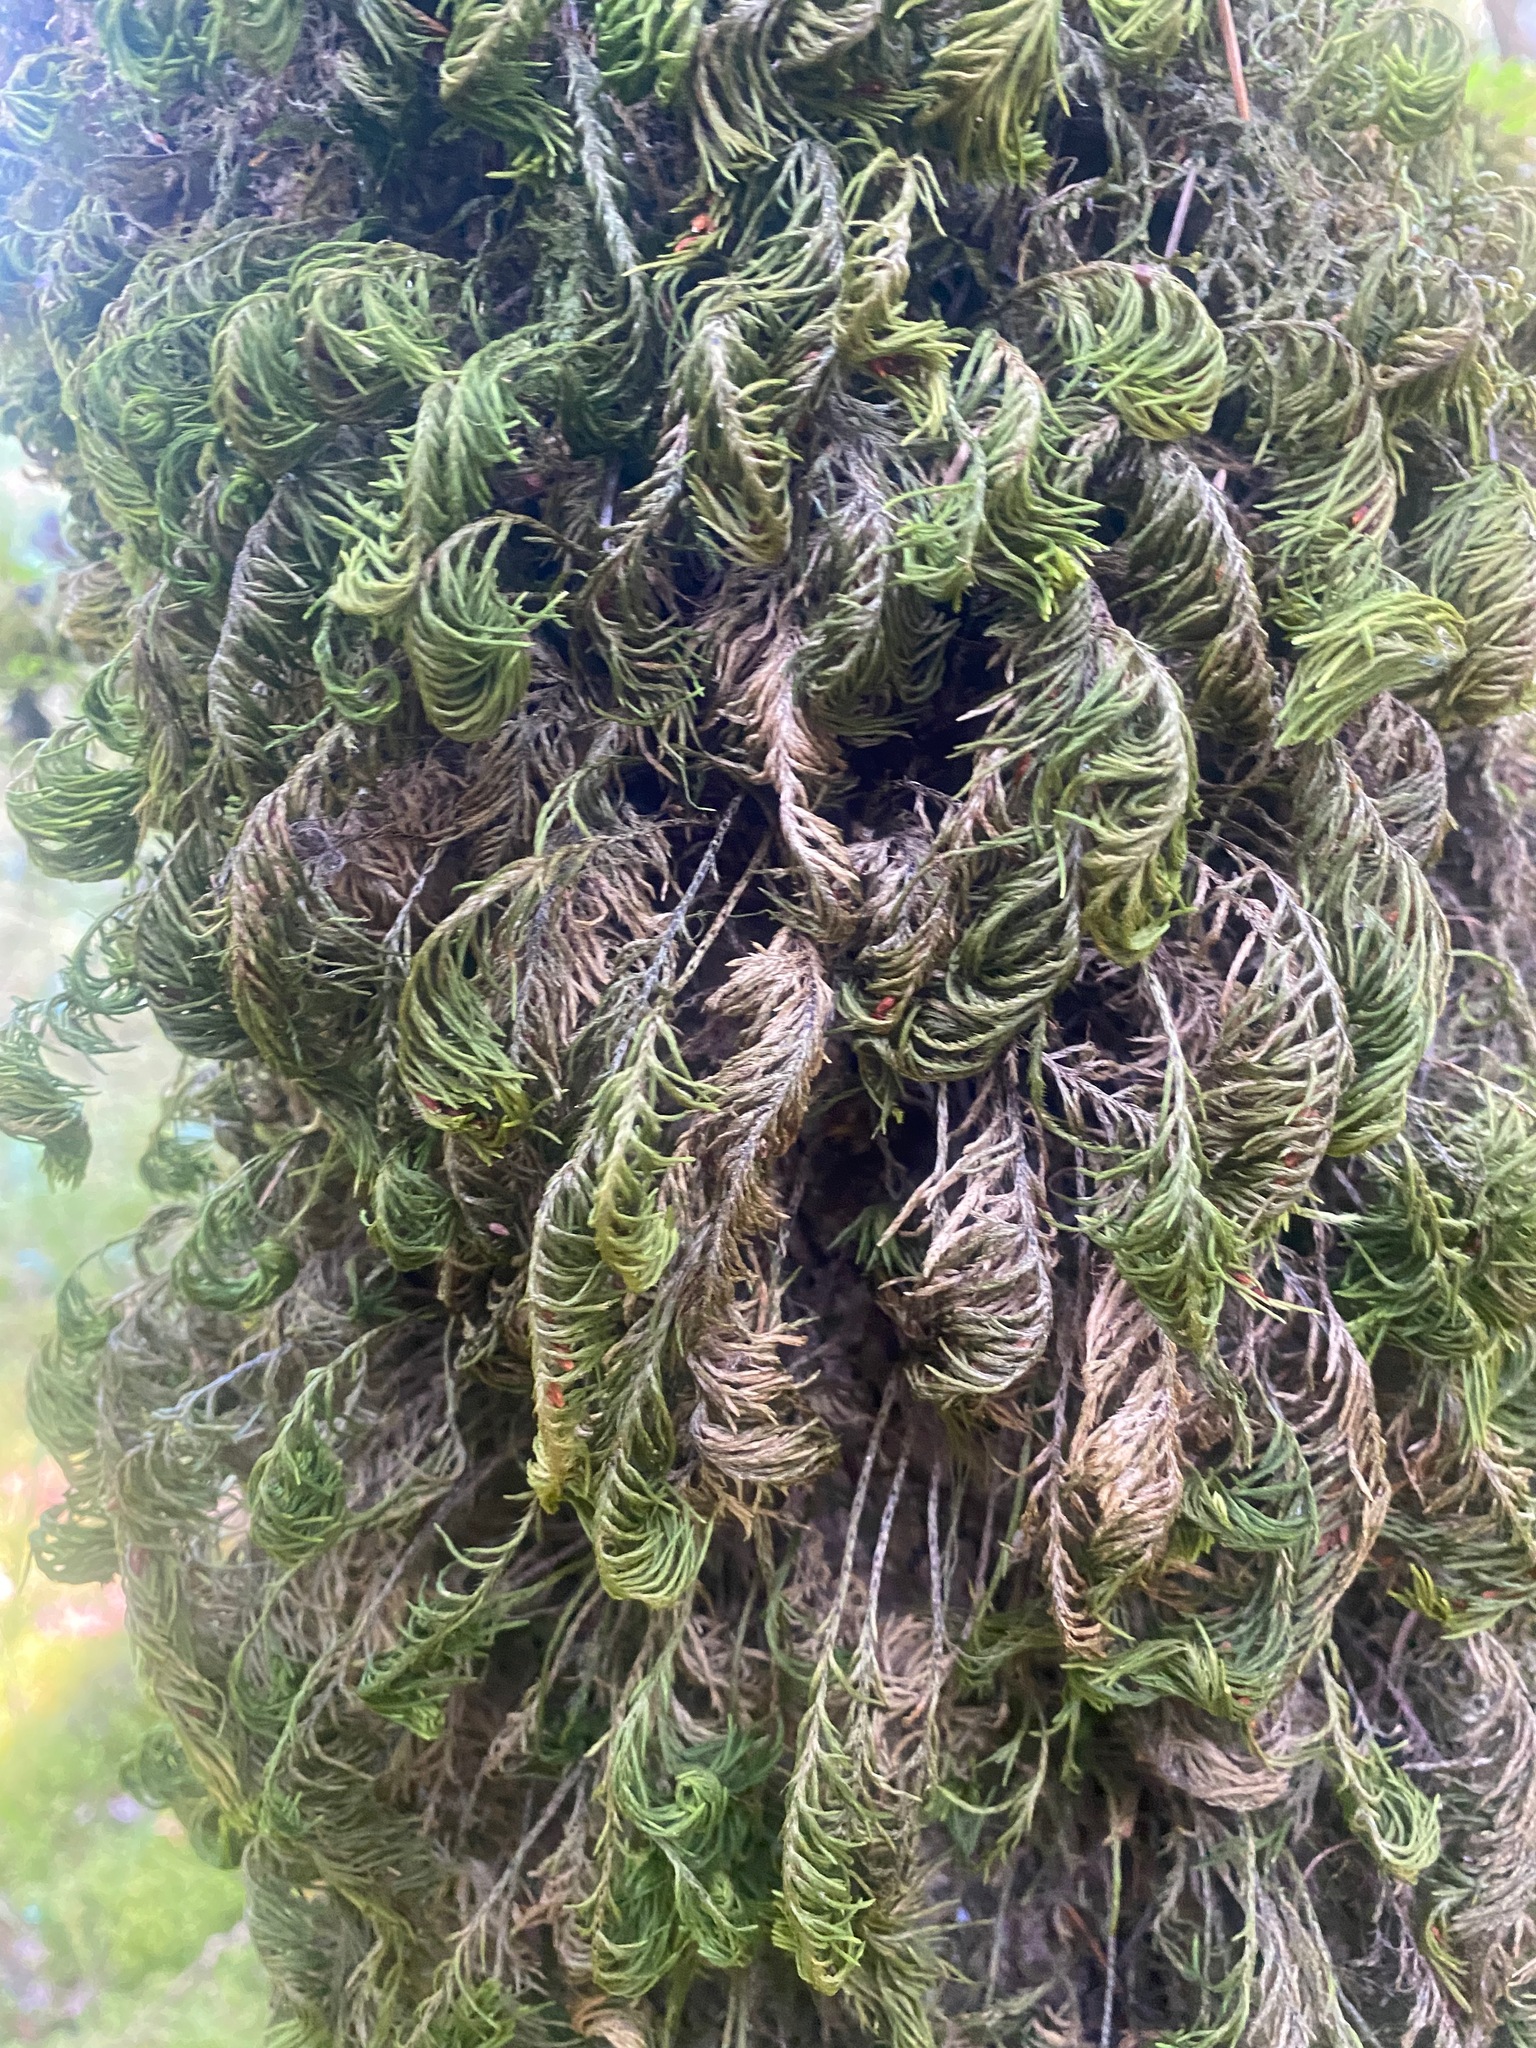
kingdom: Plantae
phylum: Bryophyta
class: Bryopsida
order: Hypnales
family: Cryphaeaceae
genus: Dendroalsia
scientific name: Dendroalsia abietina
